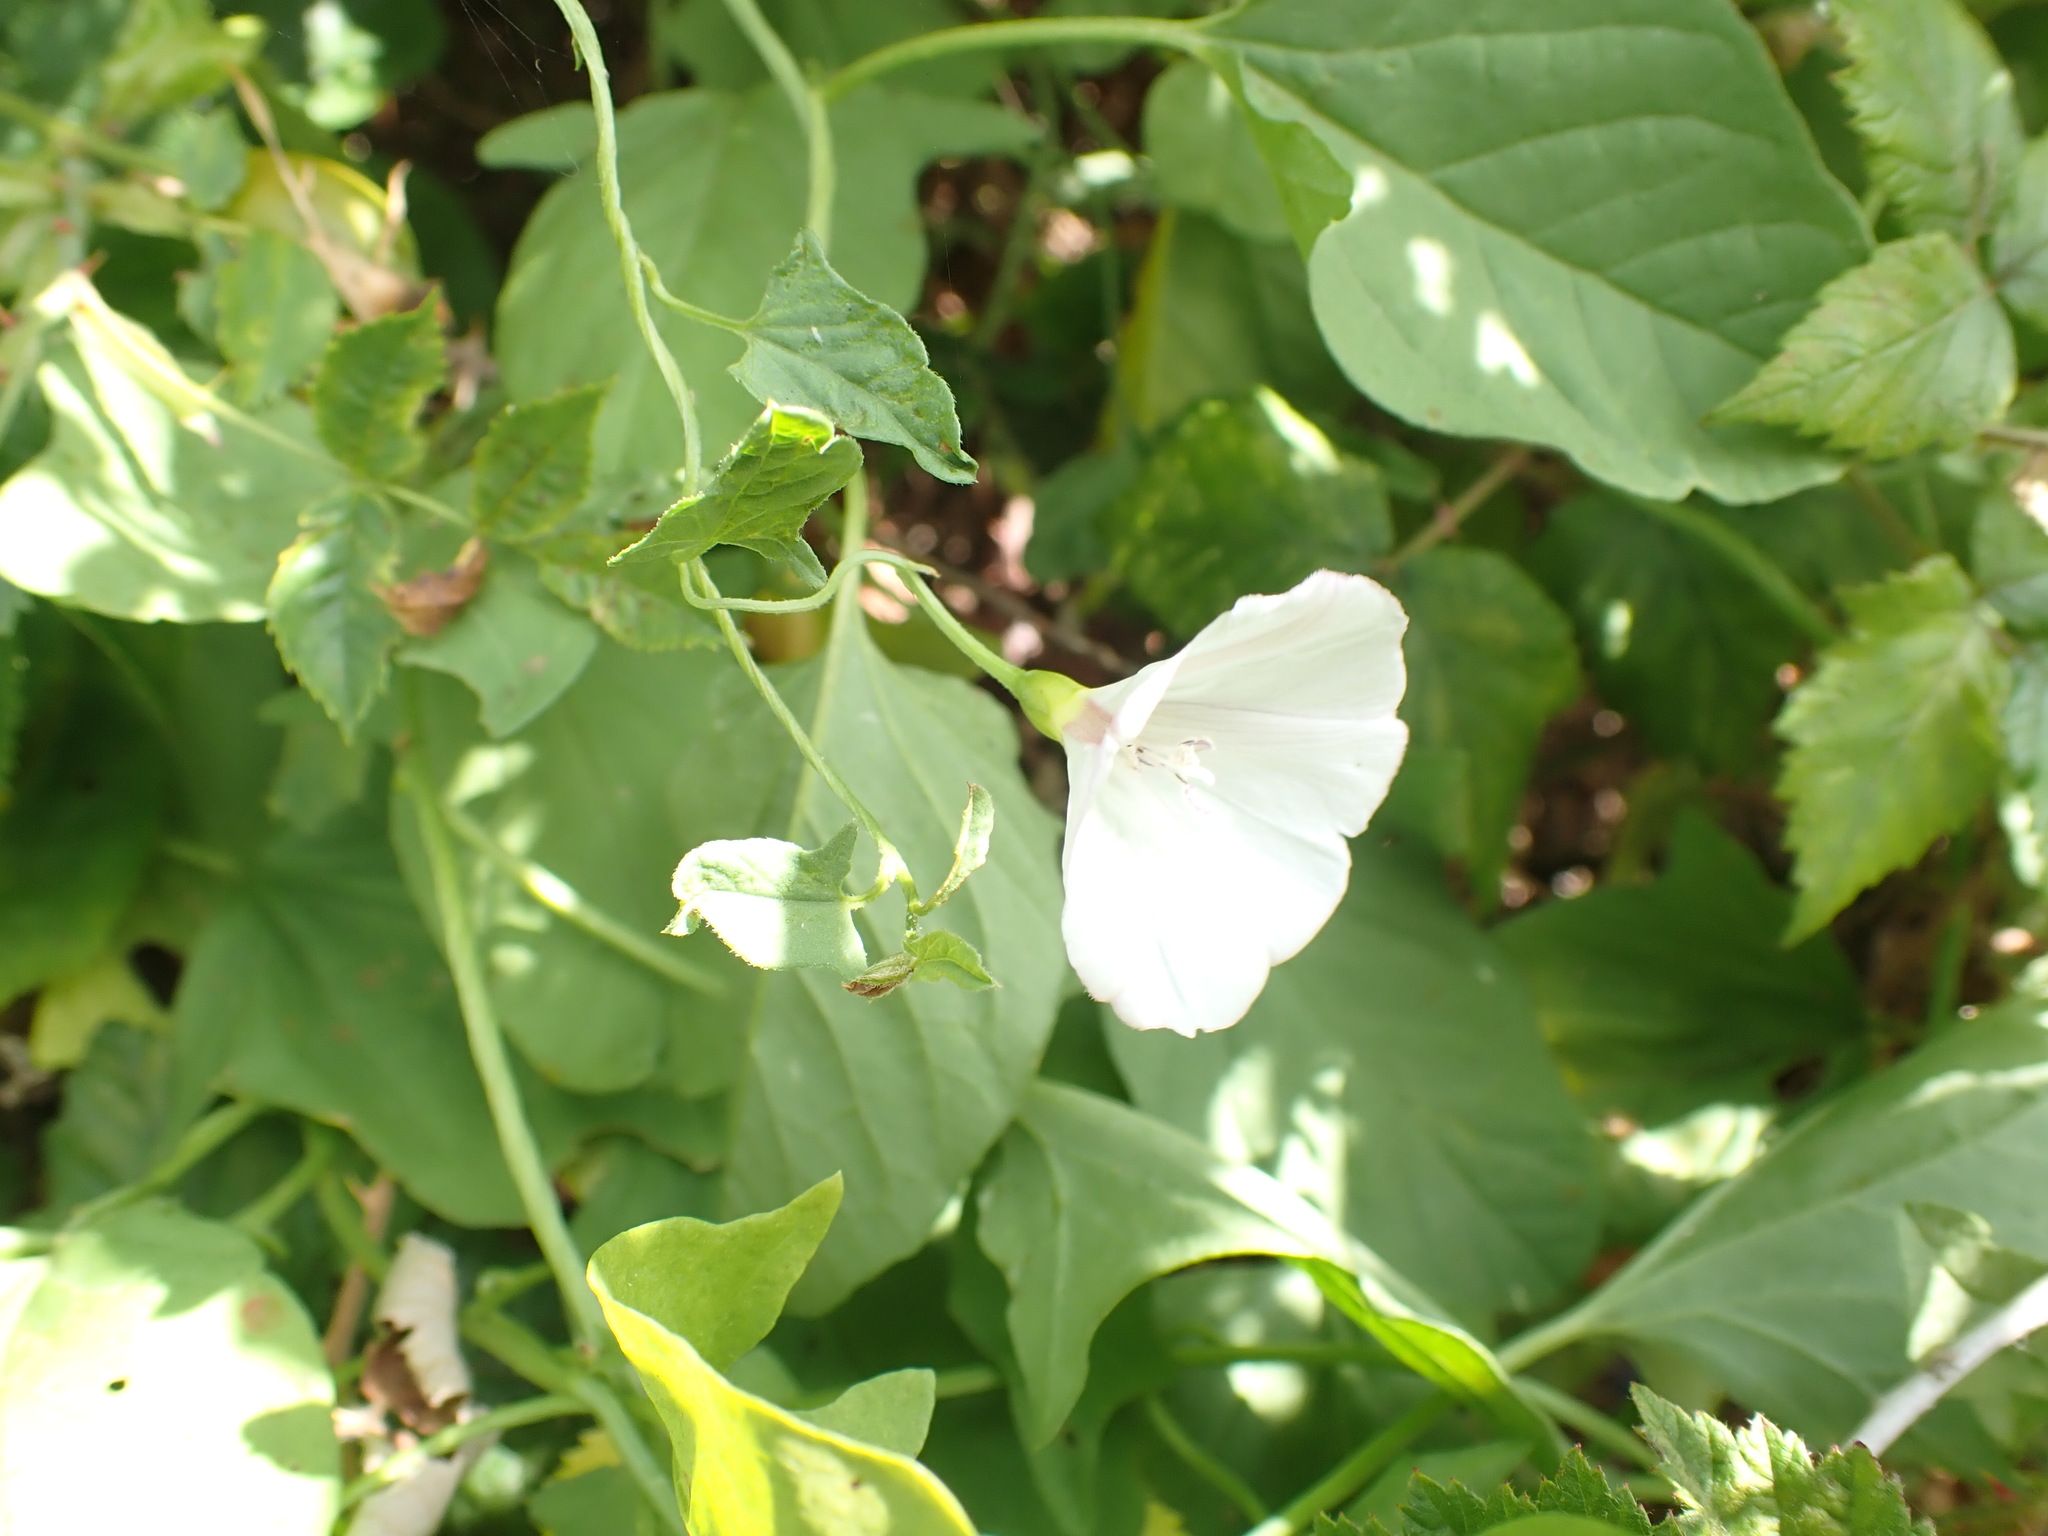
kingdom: Plantae
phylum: Tracheophyta
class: Magnoliopsida
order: Solanales
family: Convolvulaceae
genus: Convolvulus
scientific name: Convolvulus arvensis
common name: Field bindweed
